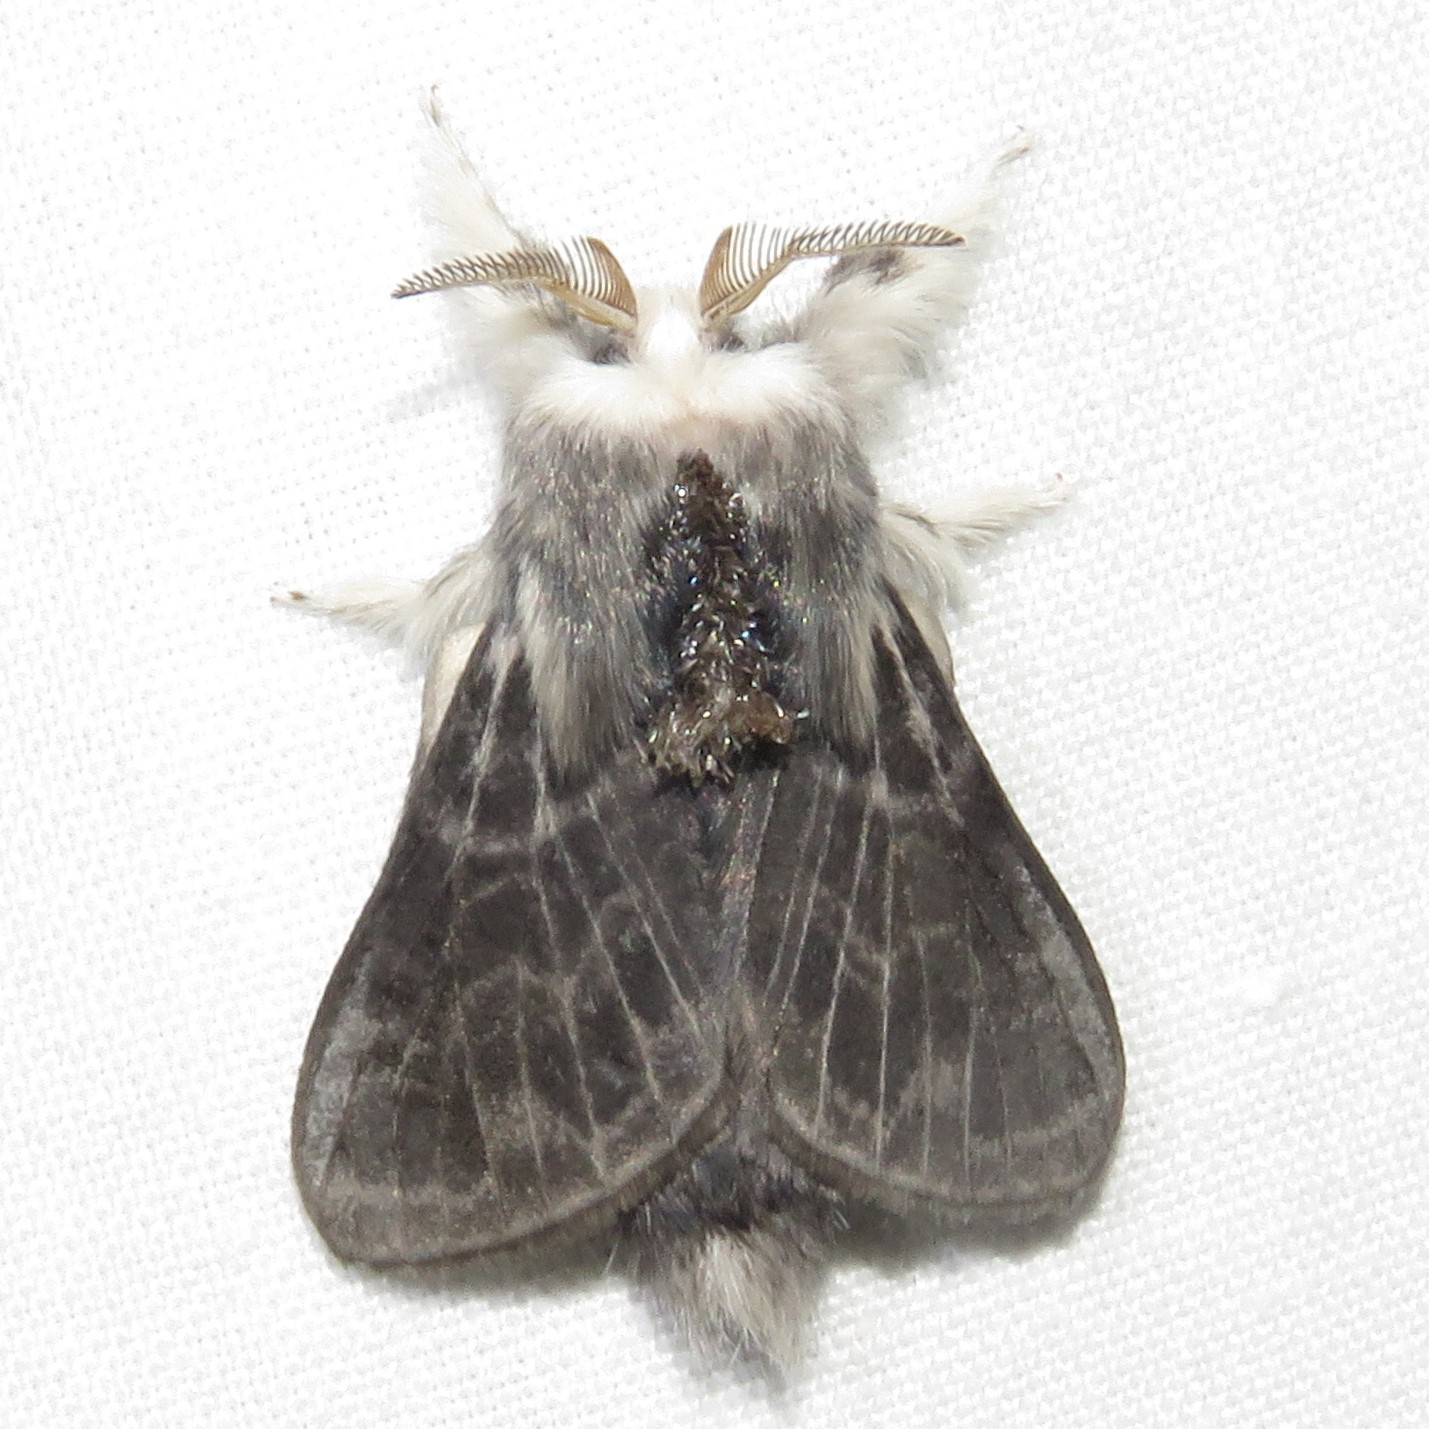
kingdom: Animalia
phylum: Arthropoda
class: Insecta
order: Lepidoptera
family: Lasiocampidae
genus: Tolype
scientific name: Tolype laricis
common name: Larch tolype moth
